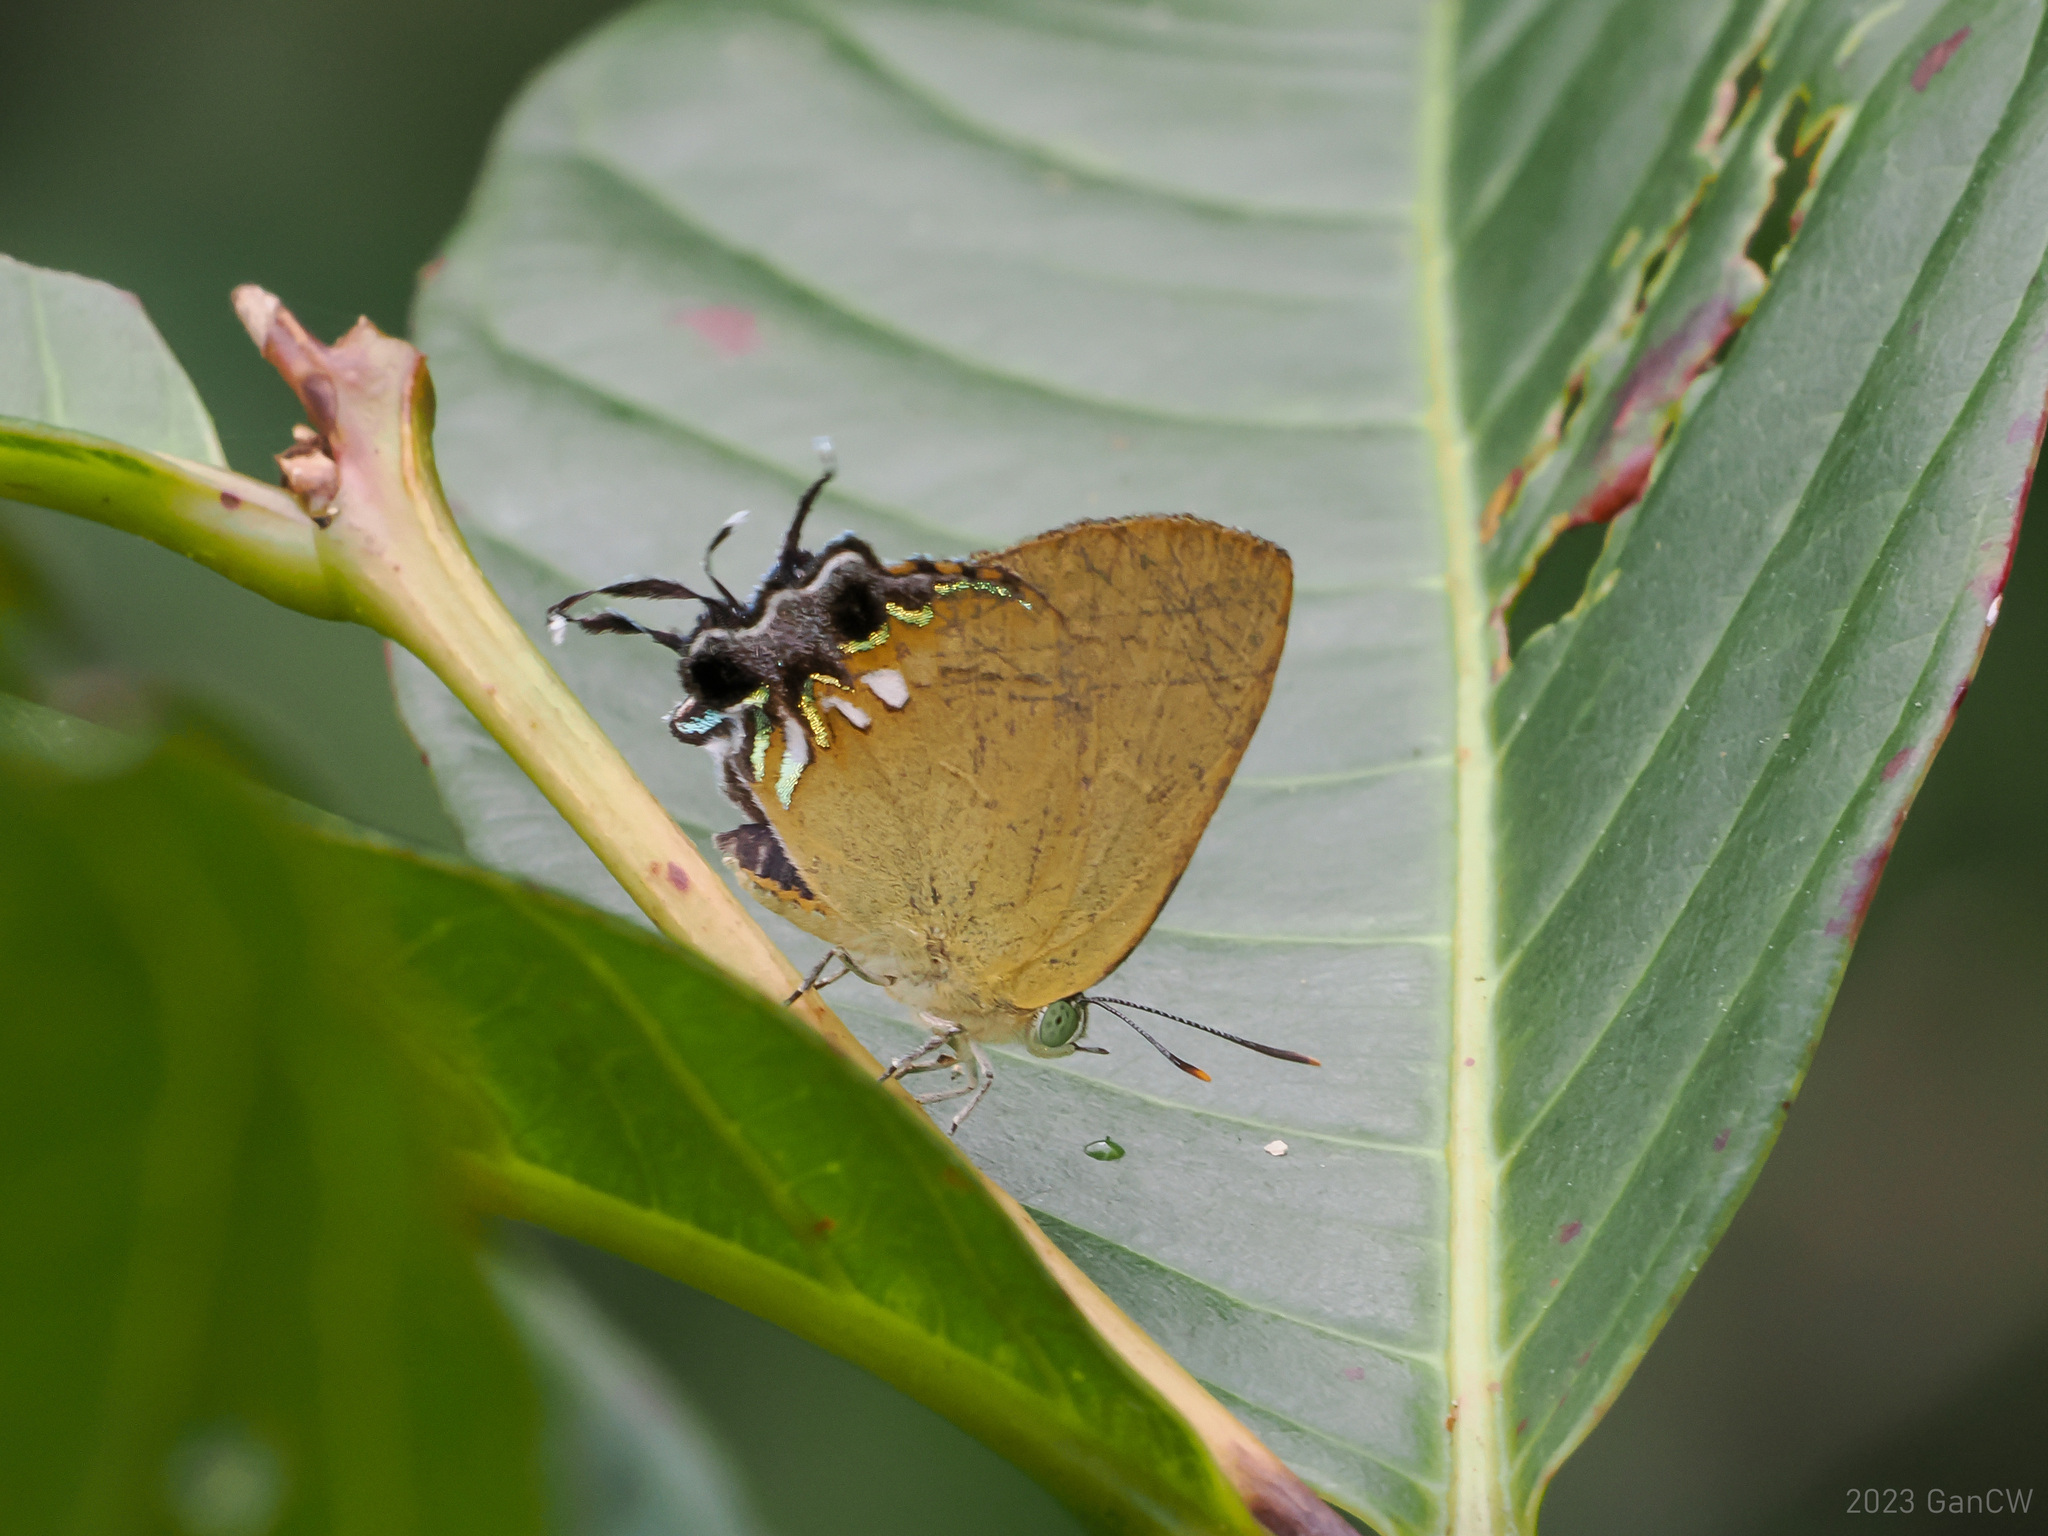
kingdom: Animalia
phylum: Arthropoda
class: Insecta
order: Lepidoptera
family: Lycaenidae
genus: Remelana
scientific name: Remelana jangala
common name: Chocolate royal
